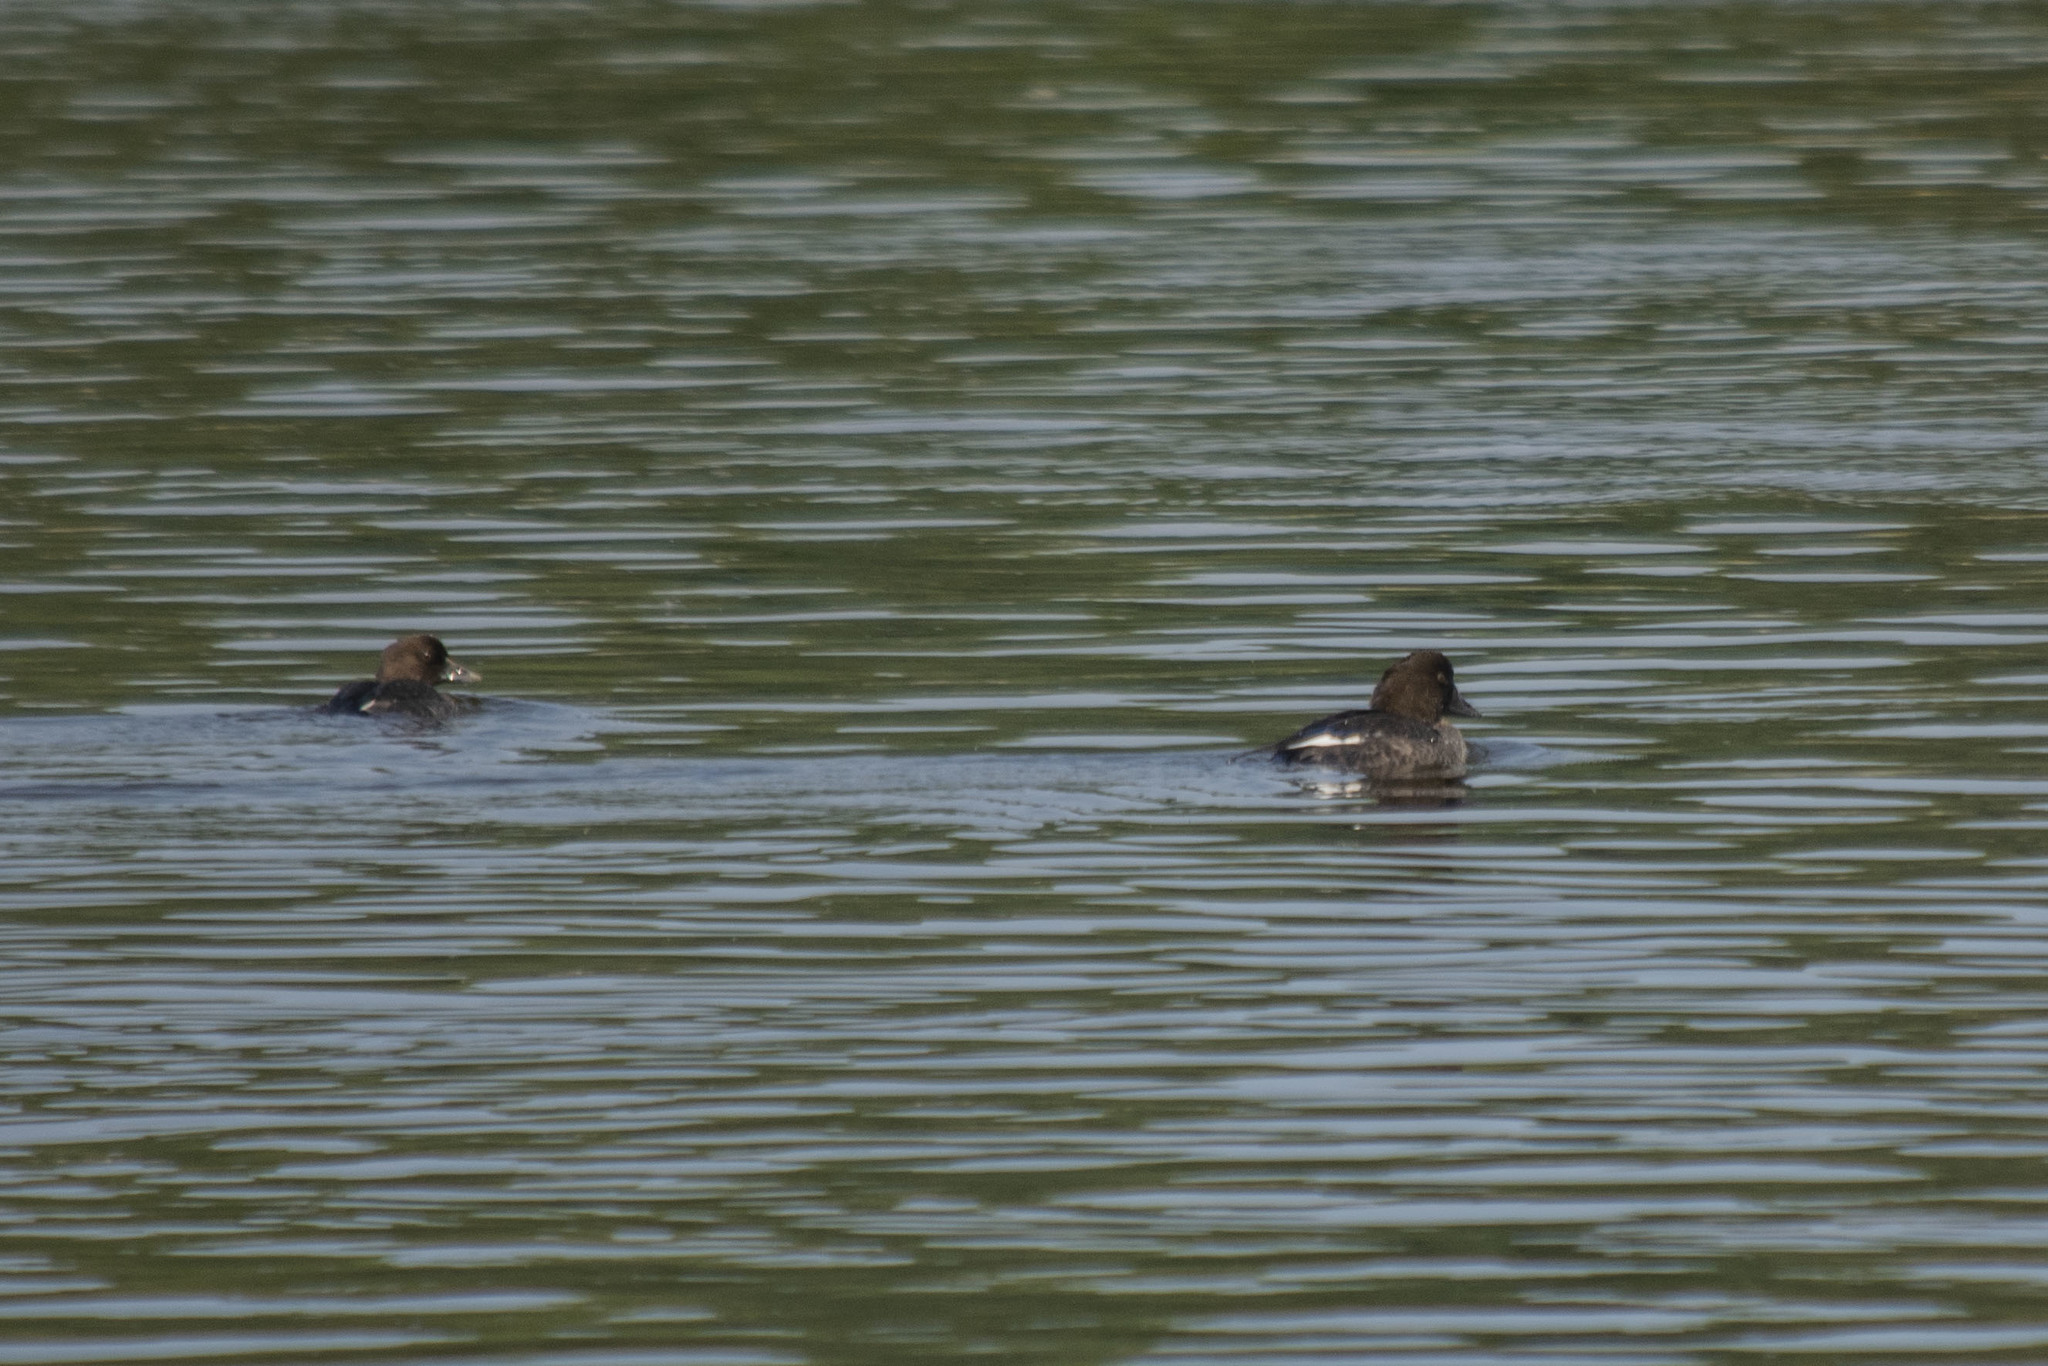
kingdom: Animalia
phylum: Chordata
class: Aves
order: Anseriformes
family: Anatidae
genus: Bucephala
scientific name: Bucephala clangula
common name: Common goldeneye
